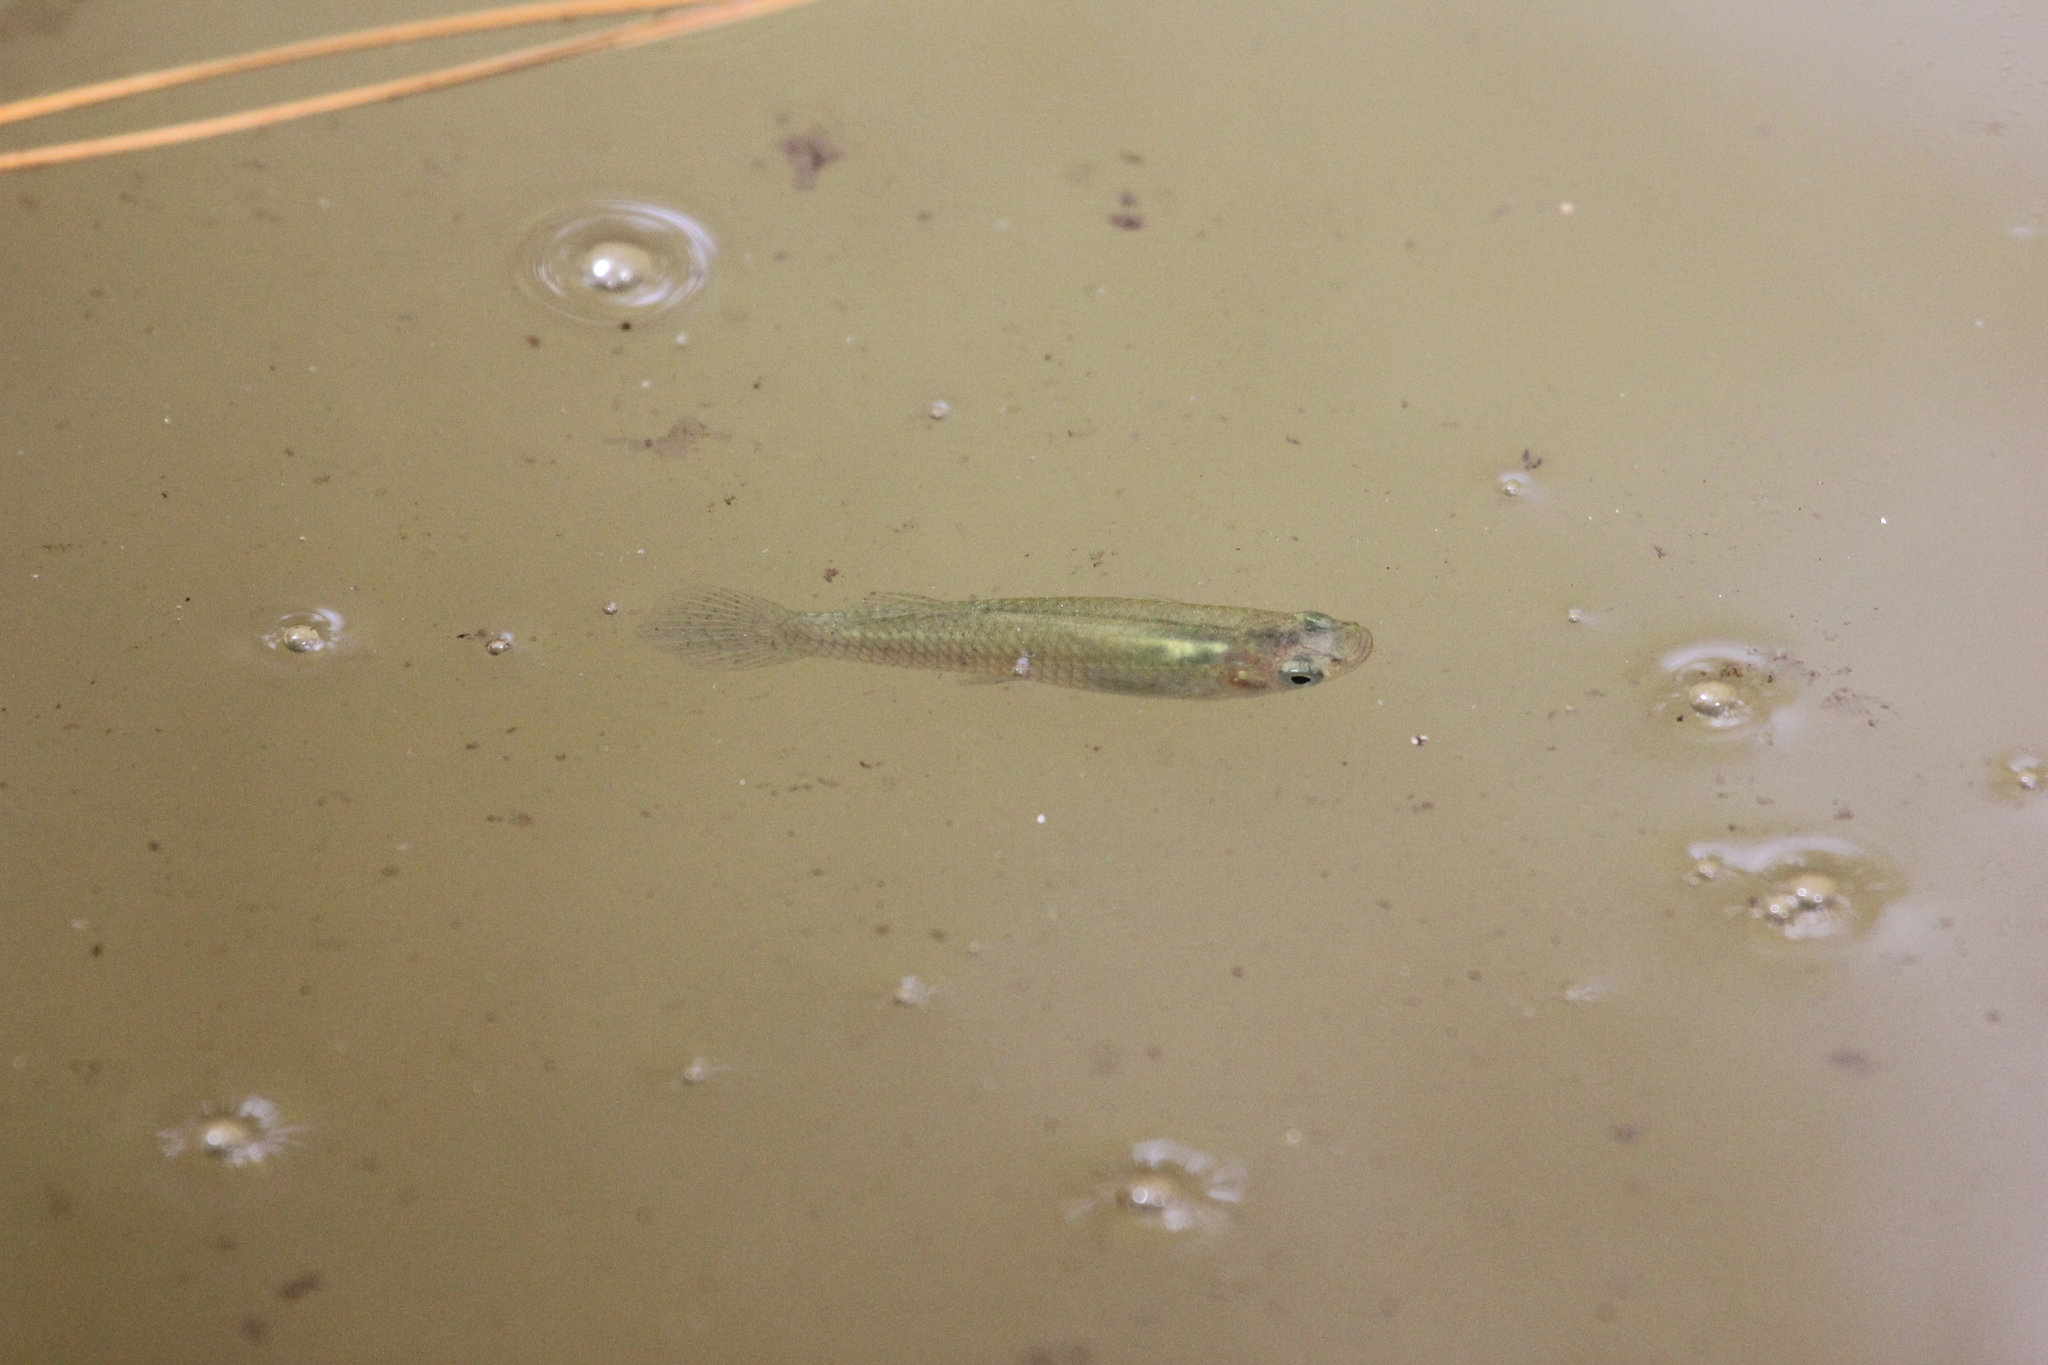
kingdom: Animalia
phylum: Chordata
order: Cyprinodontiformes
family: Poeciliidae
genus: Gambusia
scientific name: Gambusia
